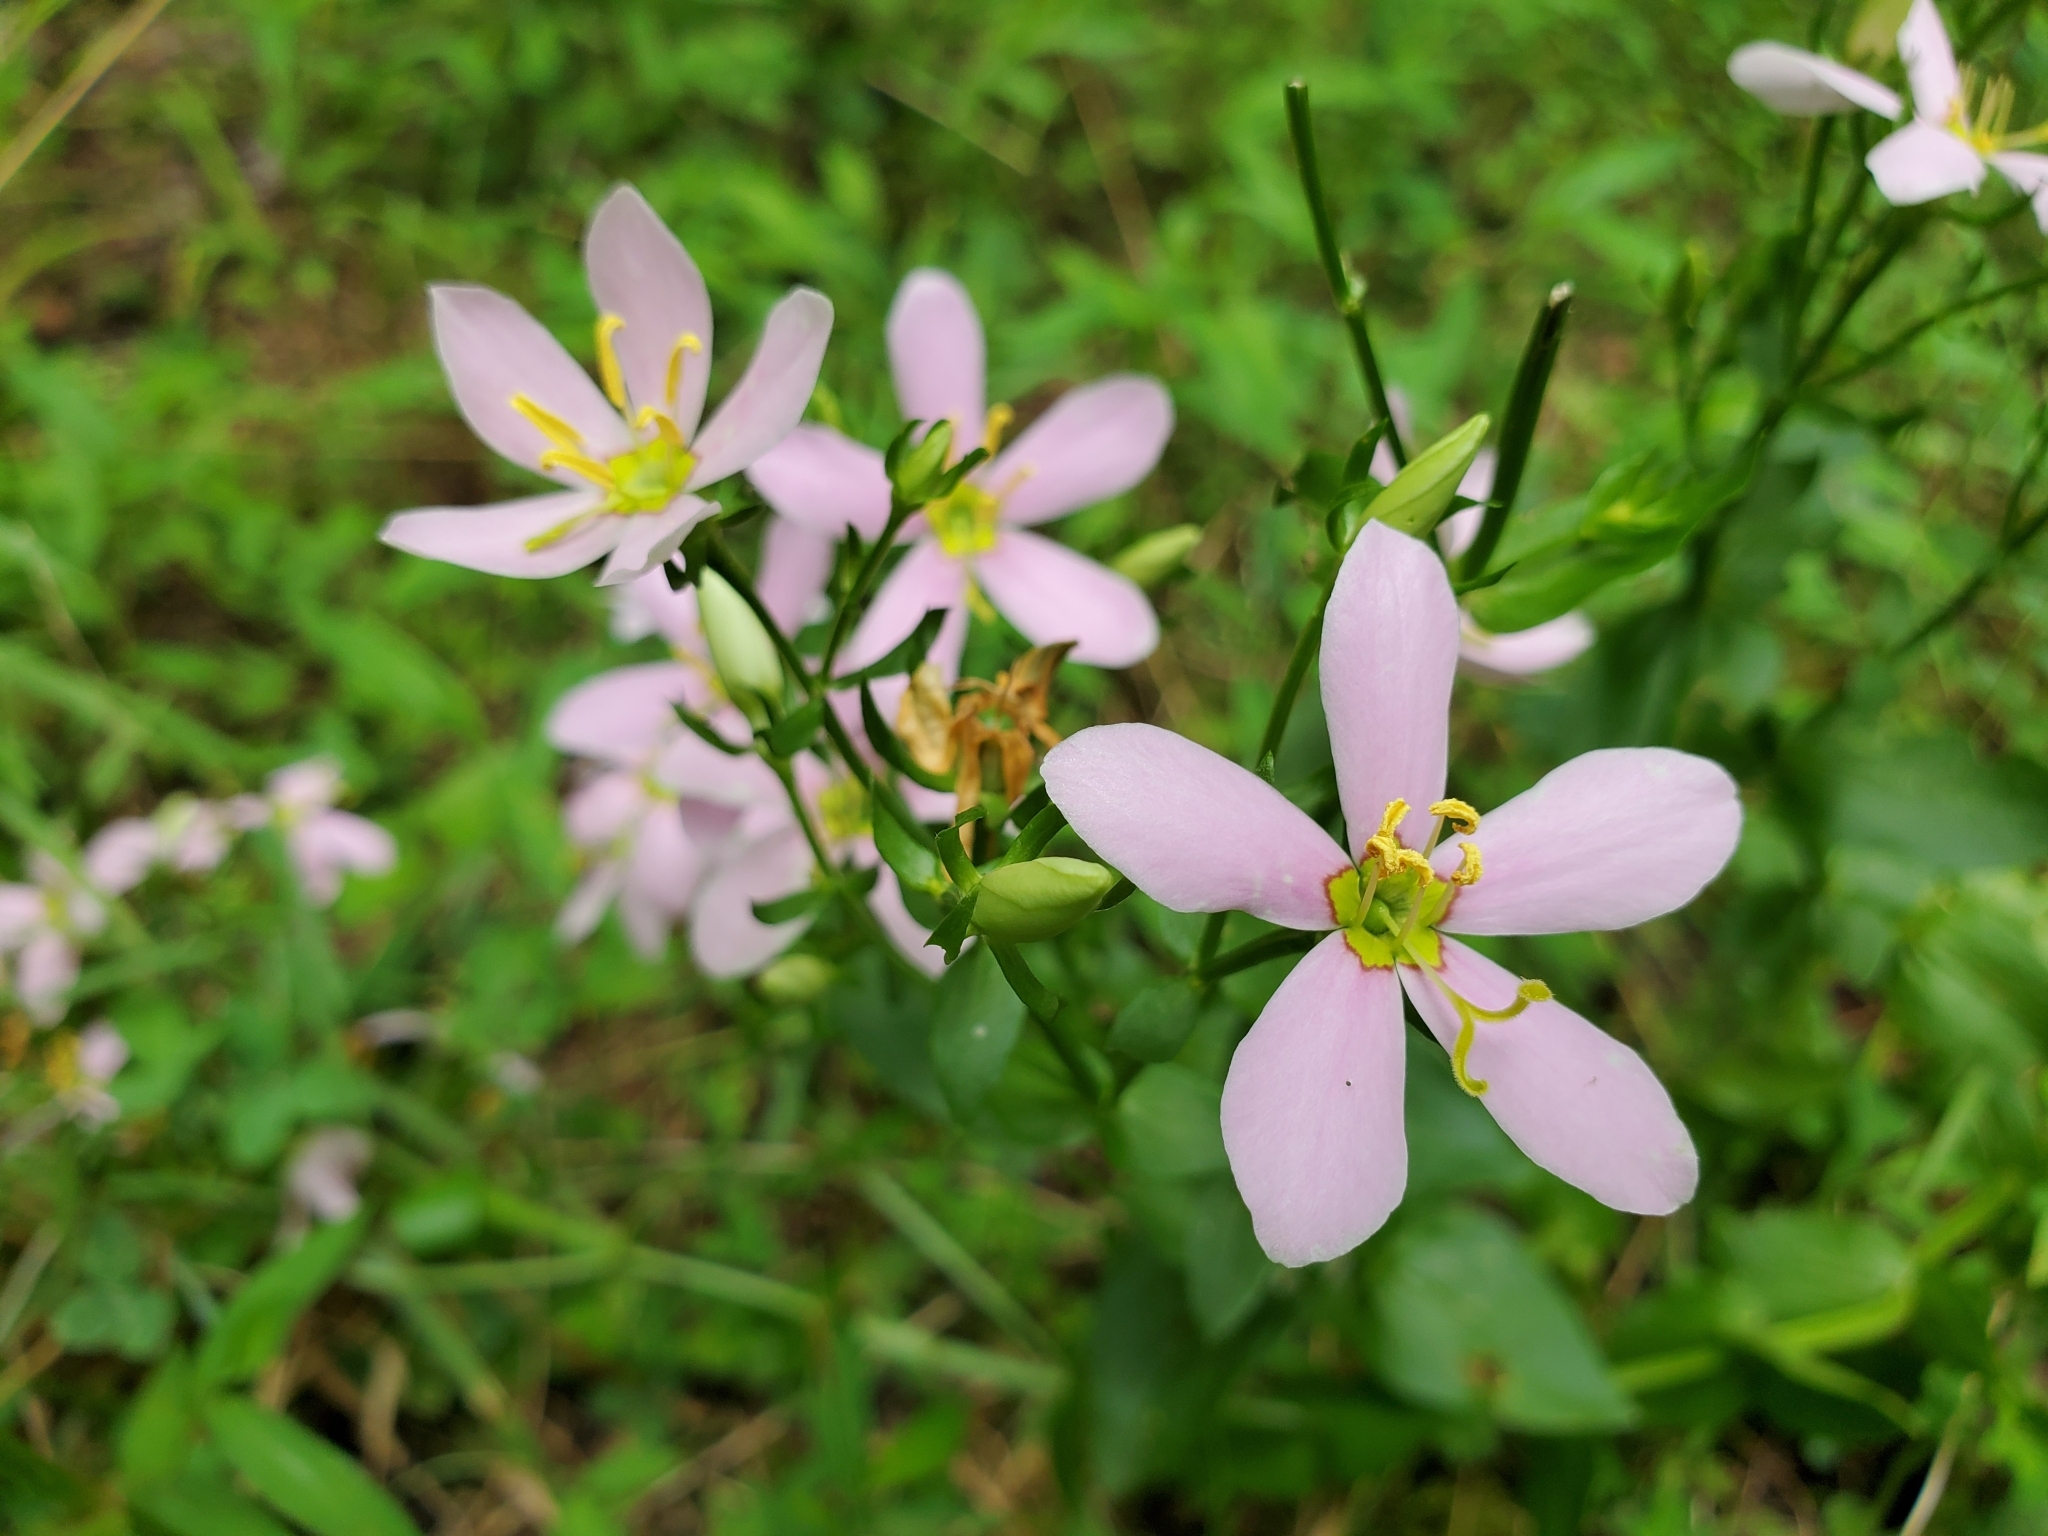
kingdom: Plantae
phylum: Tracheophyta
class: Magnoliopsida
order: Gentianales
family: Gentianaceae
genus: Sabatia
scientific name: Sabatia angularis
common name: Rose-pink
